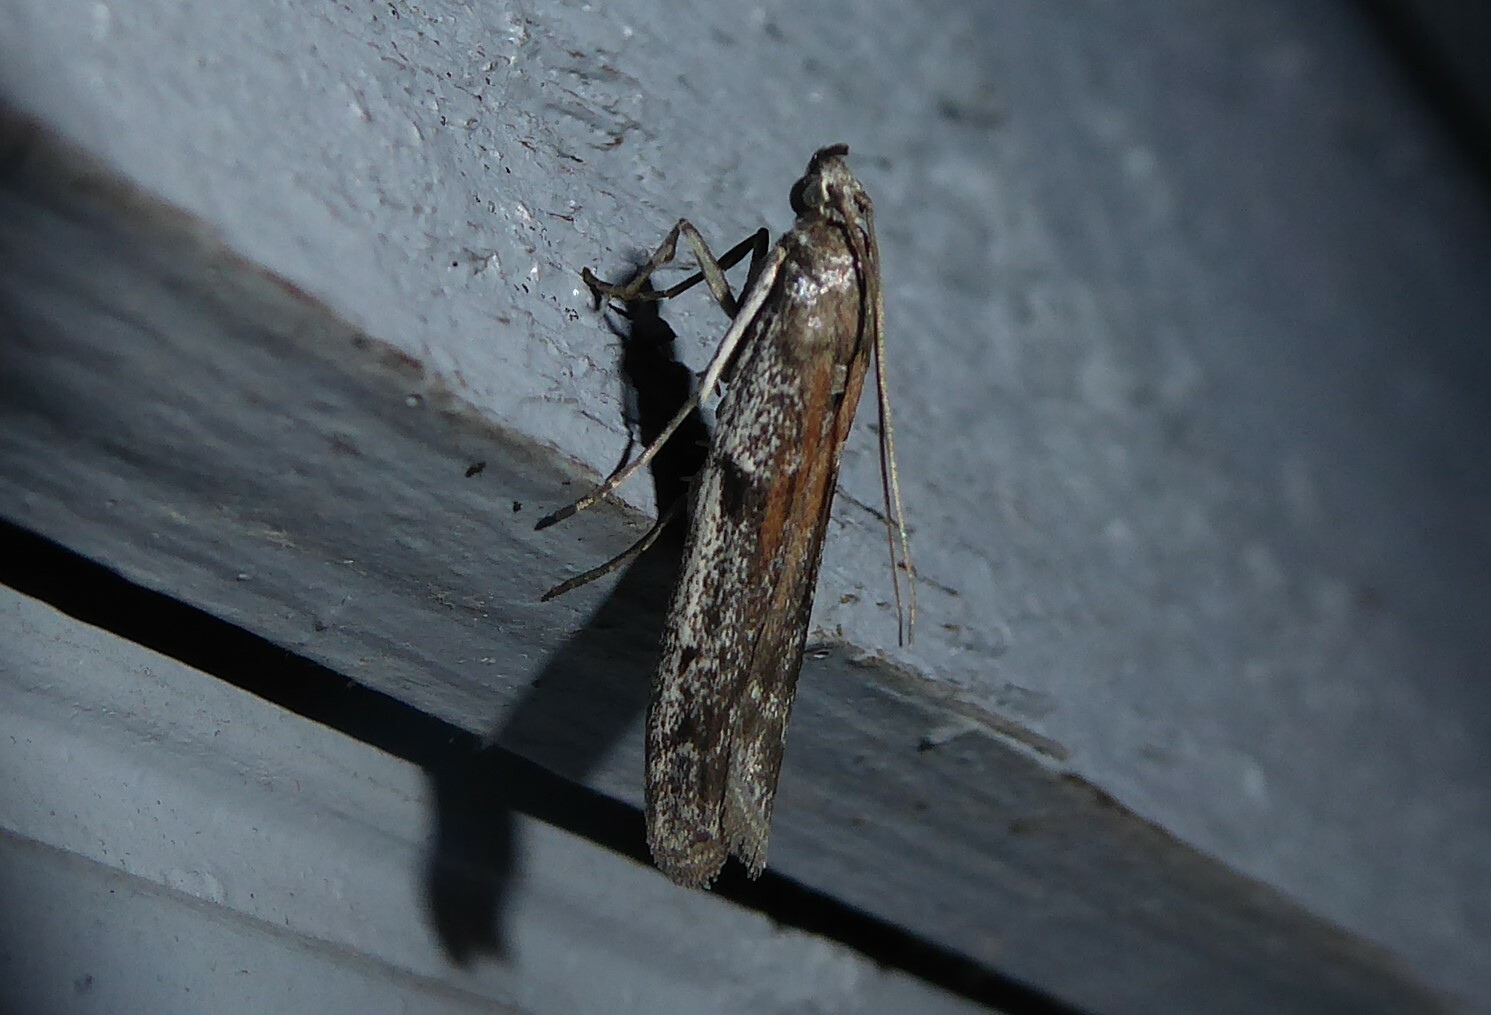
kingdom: Animalia
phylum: Arthropoda
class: Insecta
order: Lepidoptera
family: Pyralidae
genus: Patagoniodes
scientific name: Patagoniodes farinaria
